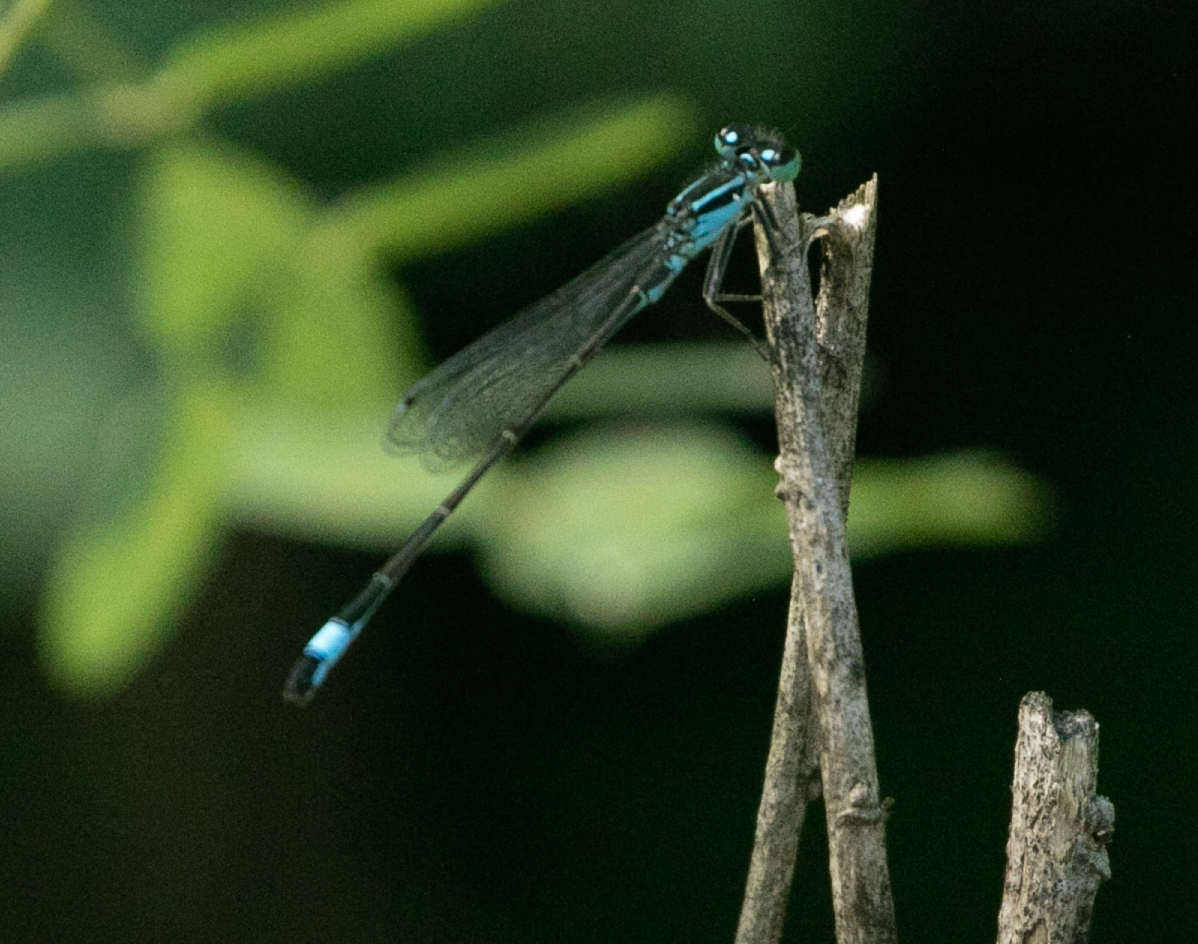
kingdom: Animalia
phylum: Arthropoda
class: Insecta
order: Odonata
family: Coenagrionidae
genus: Ischnura
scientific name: Ischnura elegans
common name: Blue-tailed damselfly
